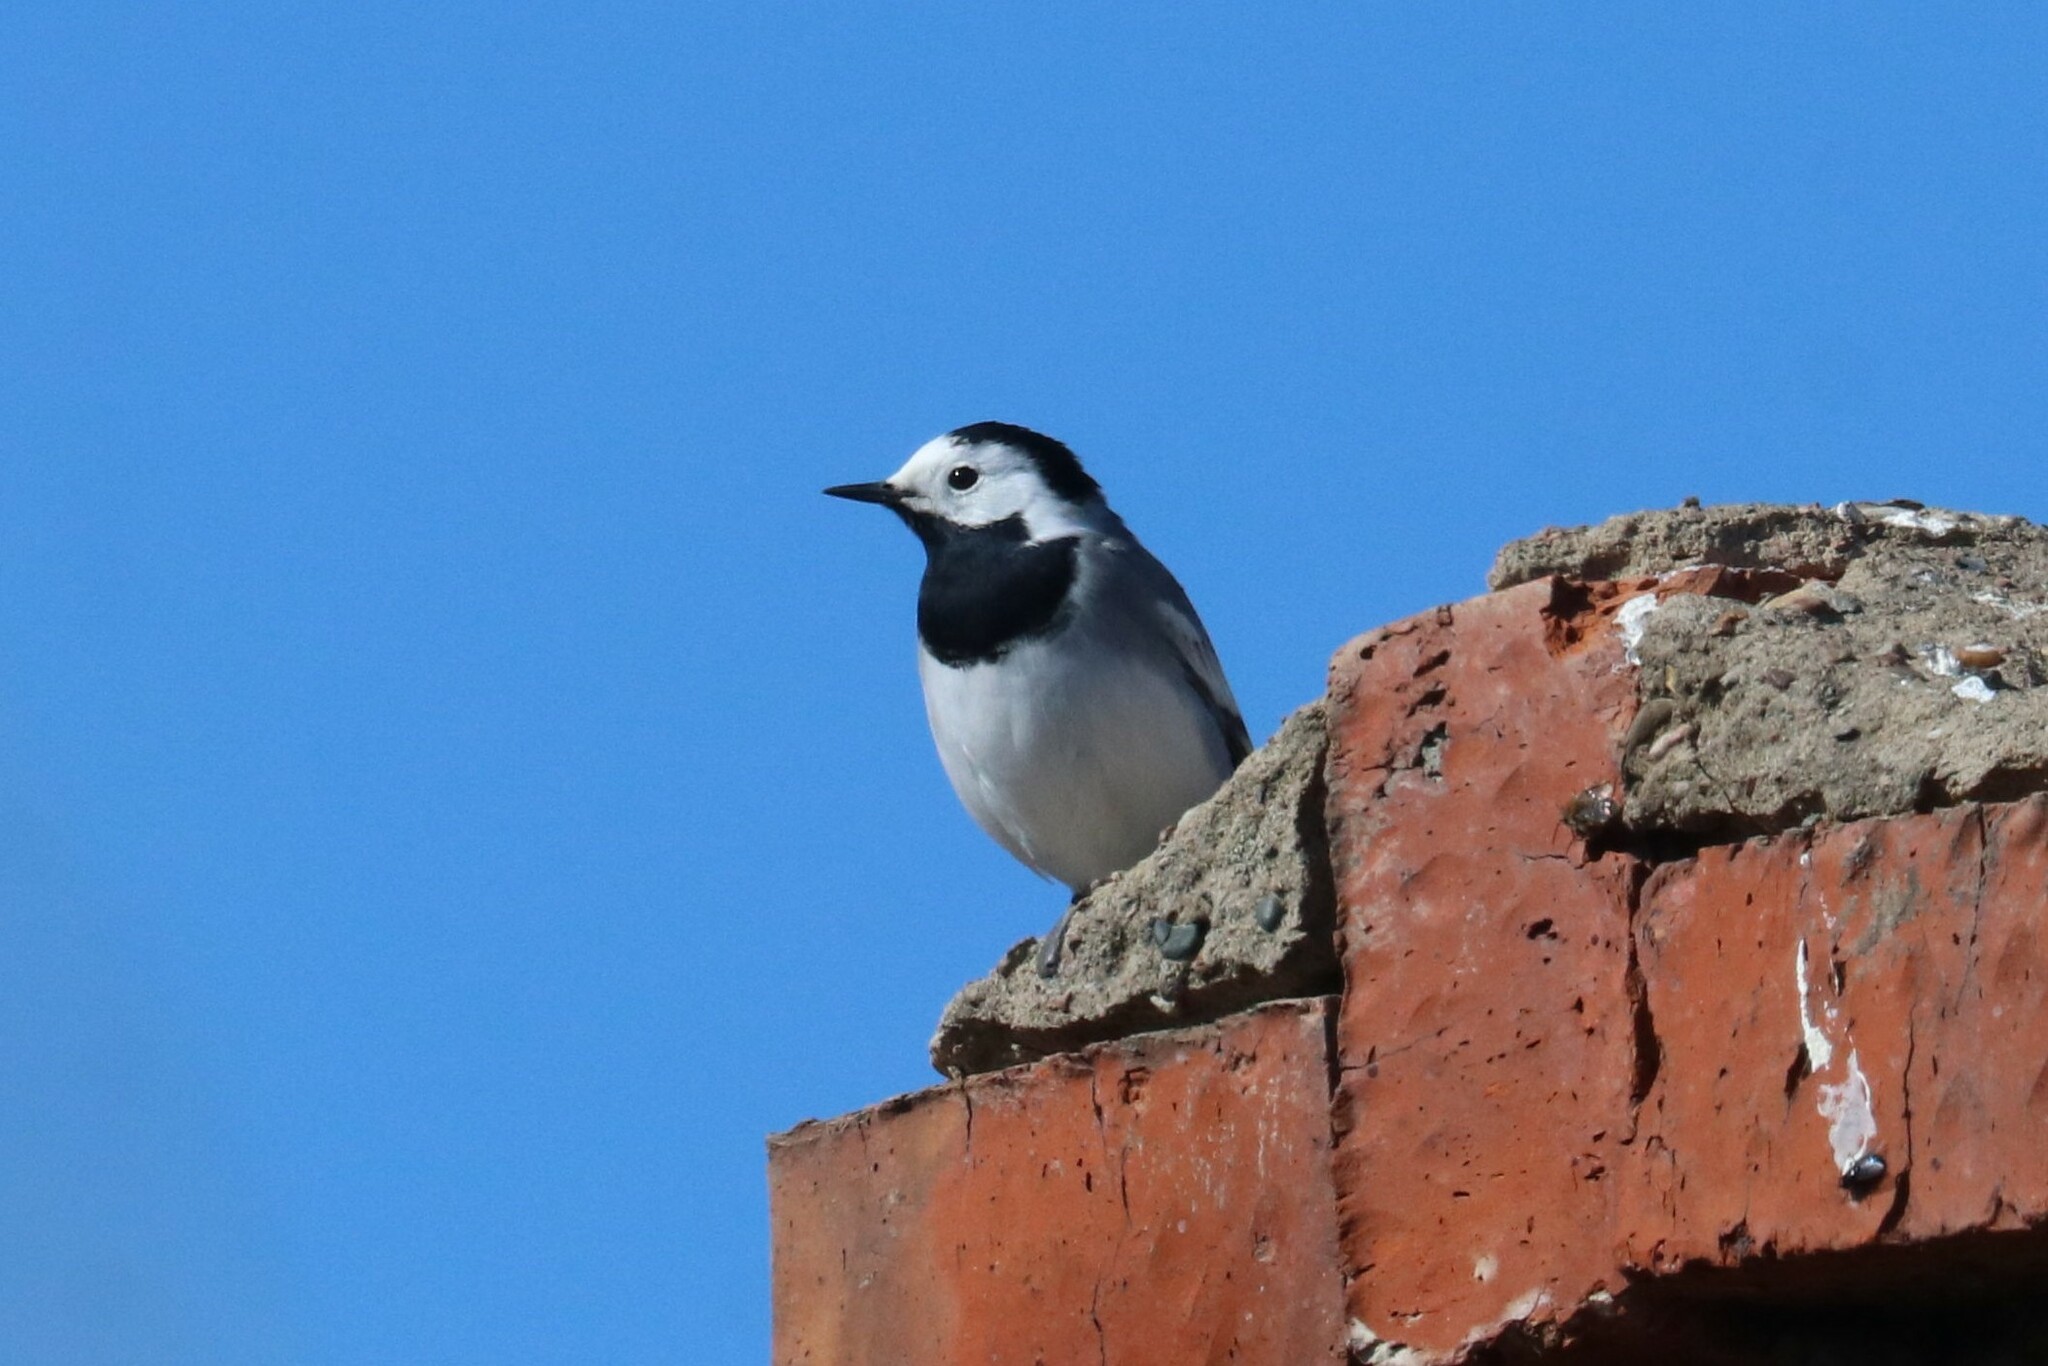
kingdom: Animalia
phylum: Chordata
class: Aves
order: Passeriformes
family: Motacillidae
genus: Motacilla
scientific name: Motacilla alba
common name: White wagtail
